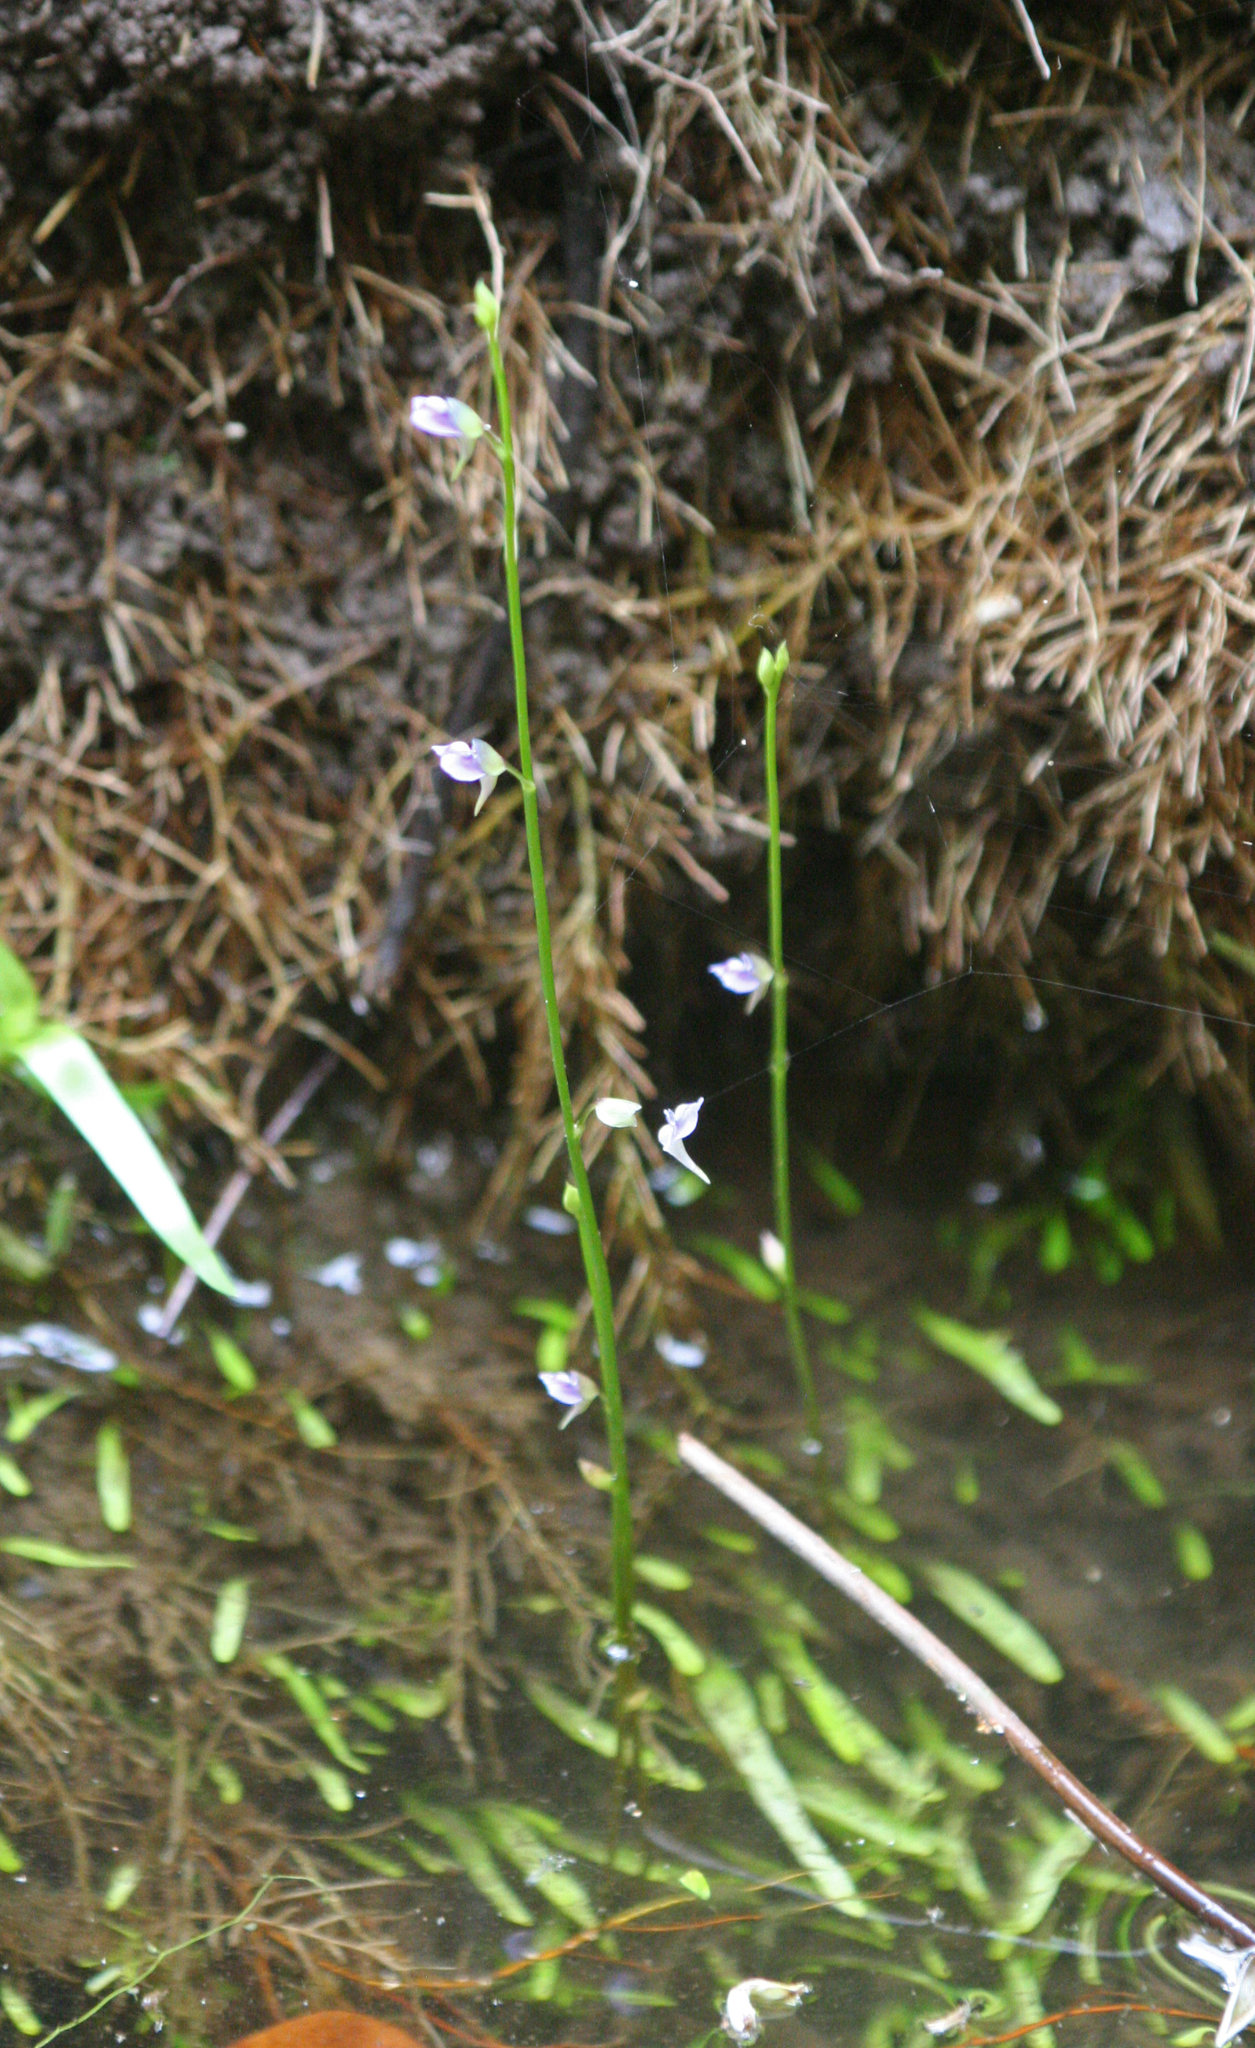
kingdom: Plantae
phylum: Tracheophyta
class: Magnoliopsida
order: Lamiales
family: Lentibulariaceae
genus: Utricularia
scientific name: Utricularia uliginosa
